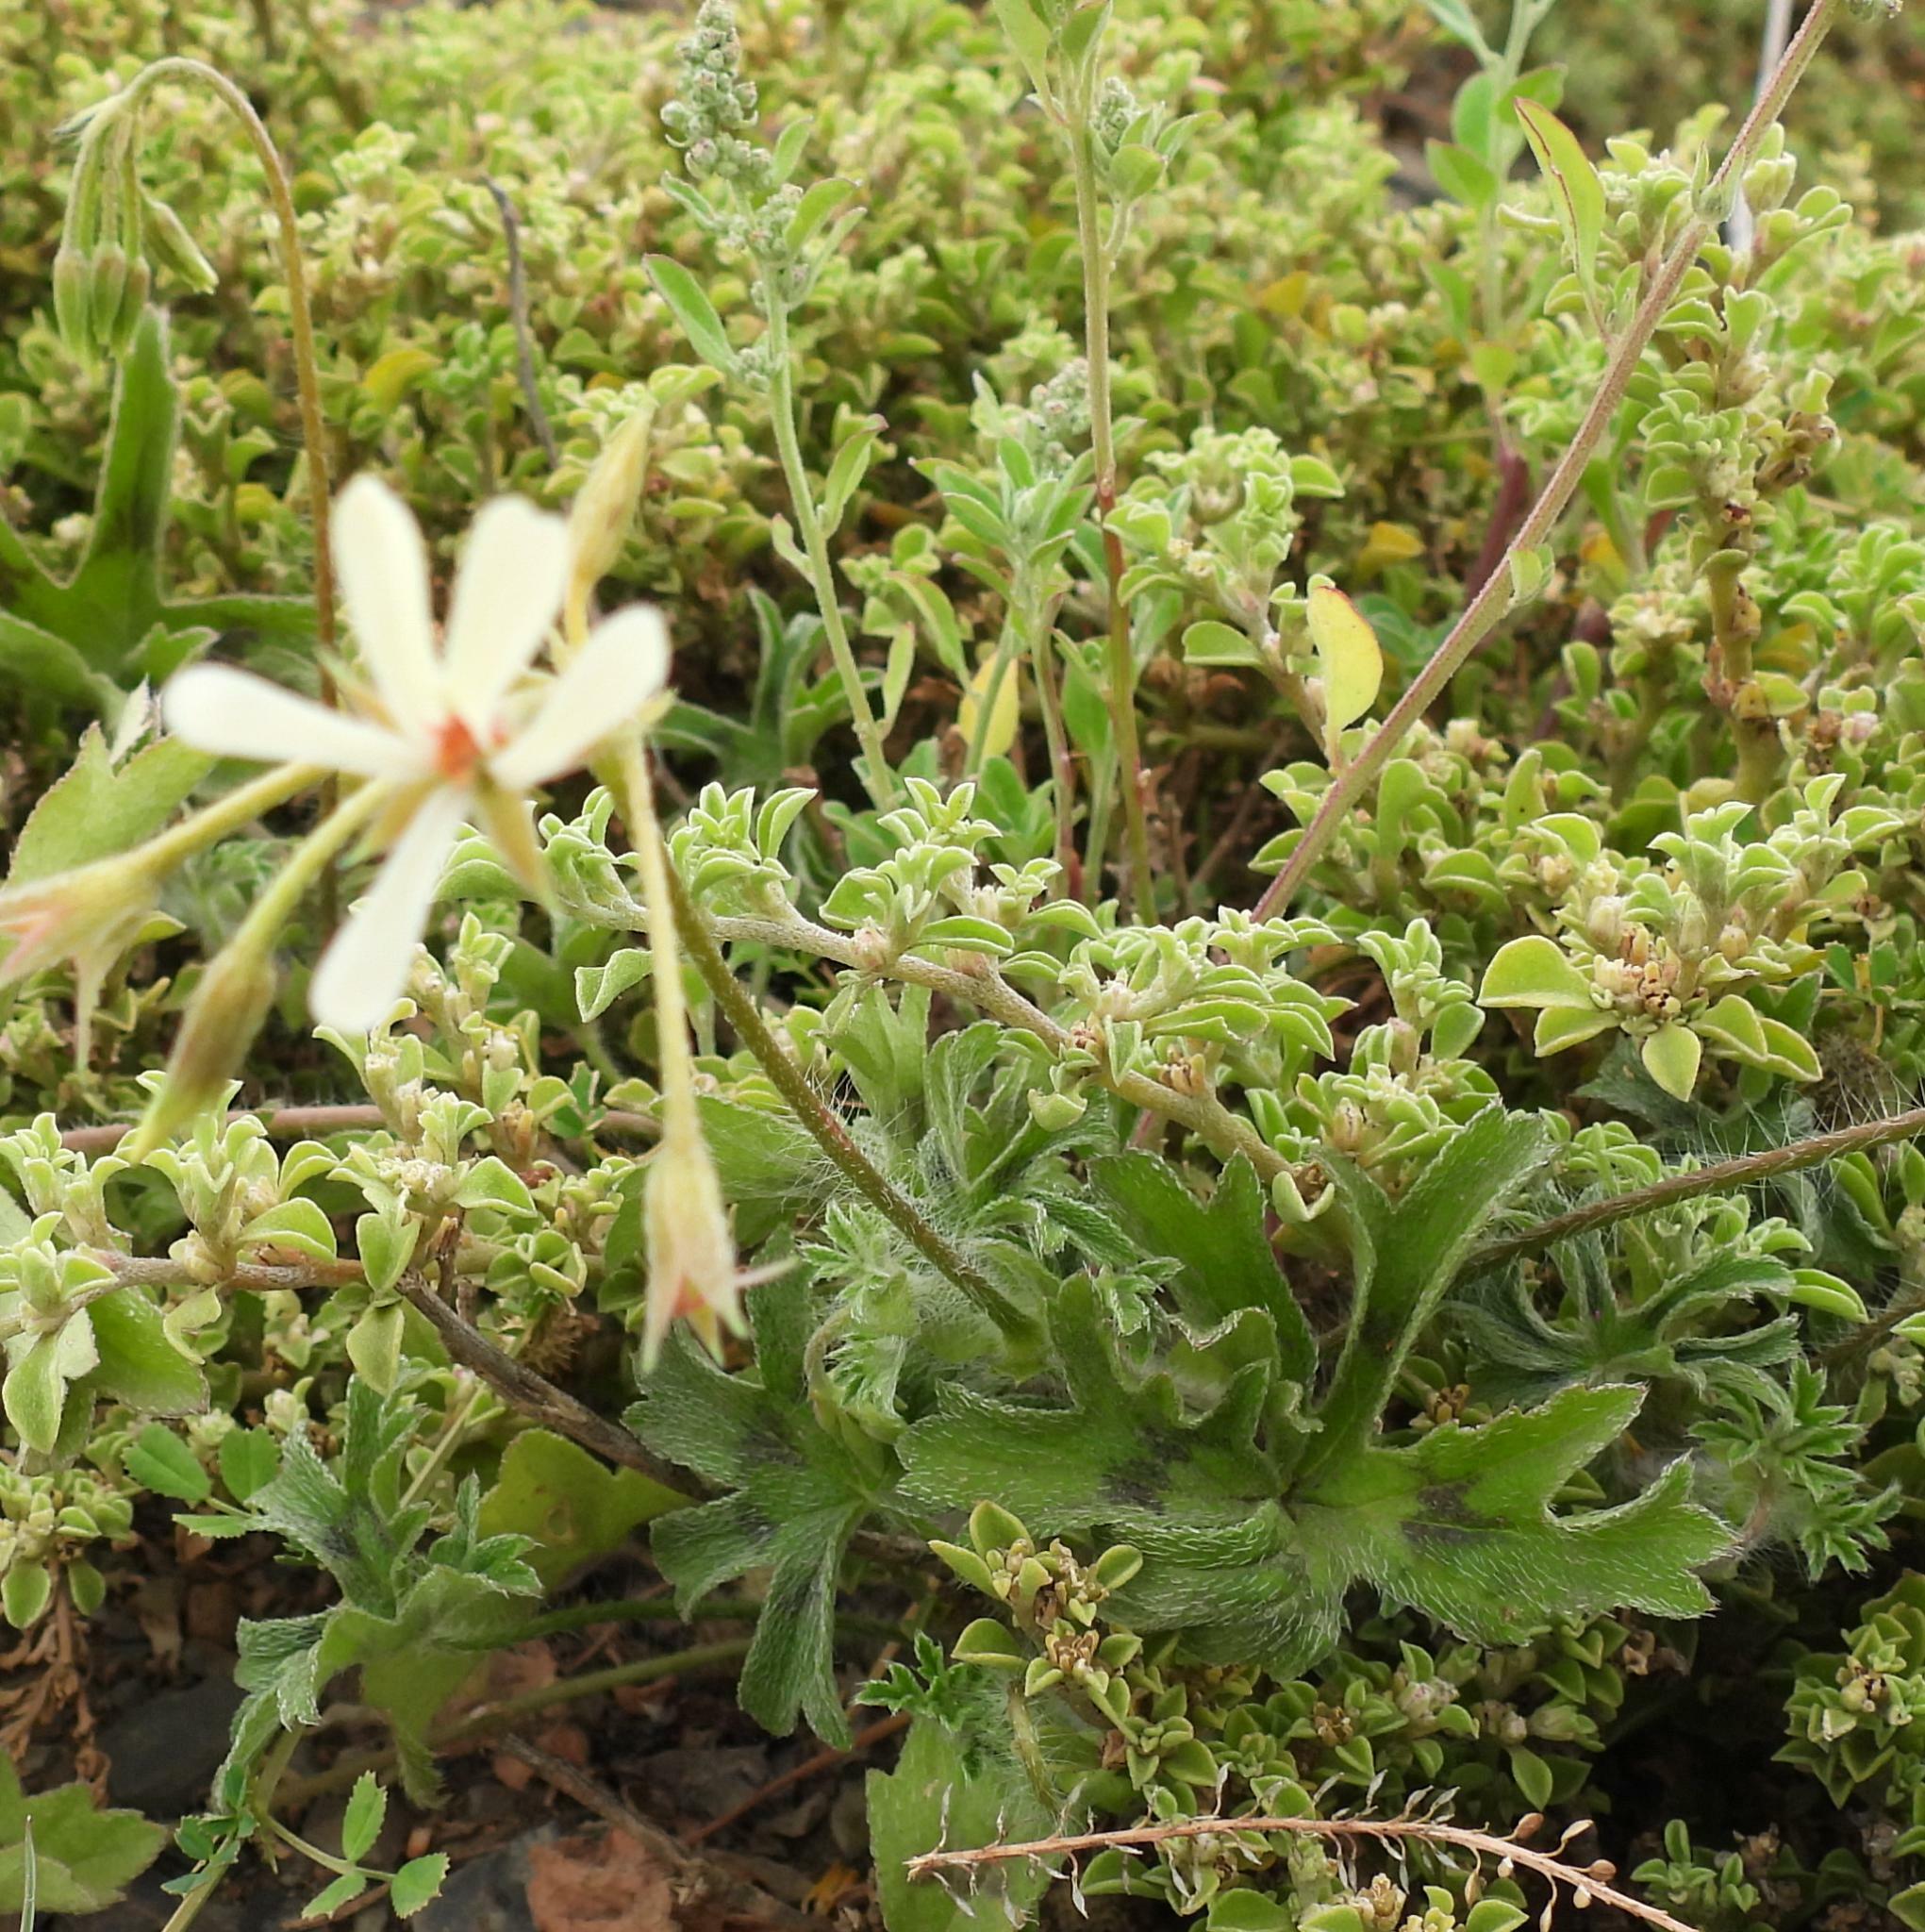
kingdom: Plantae
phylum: Tracheophyta
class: Magnoliopsida
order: Geraniales
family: Geraniaceae
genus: Pelargonium
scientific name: Pelargonium alchemilloides
